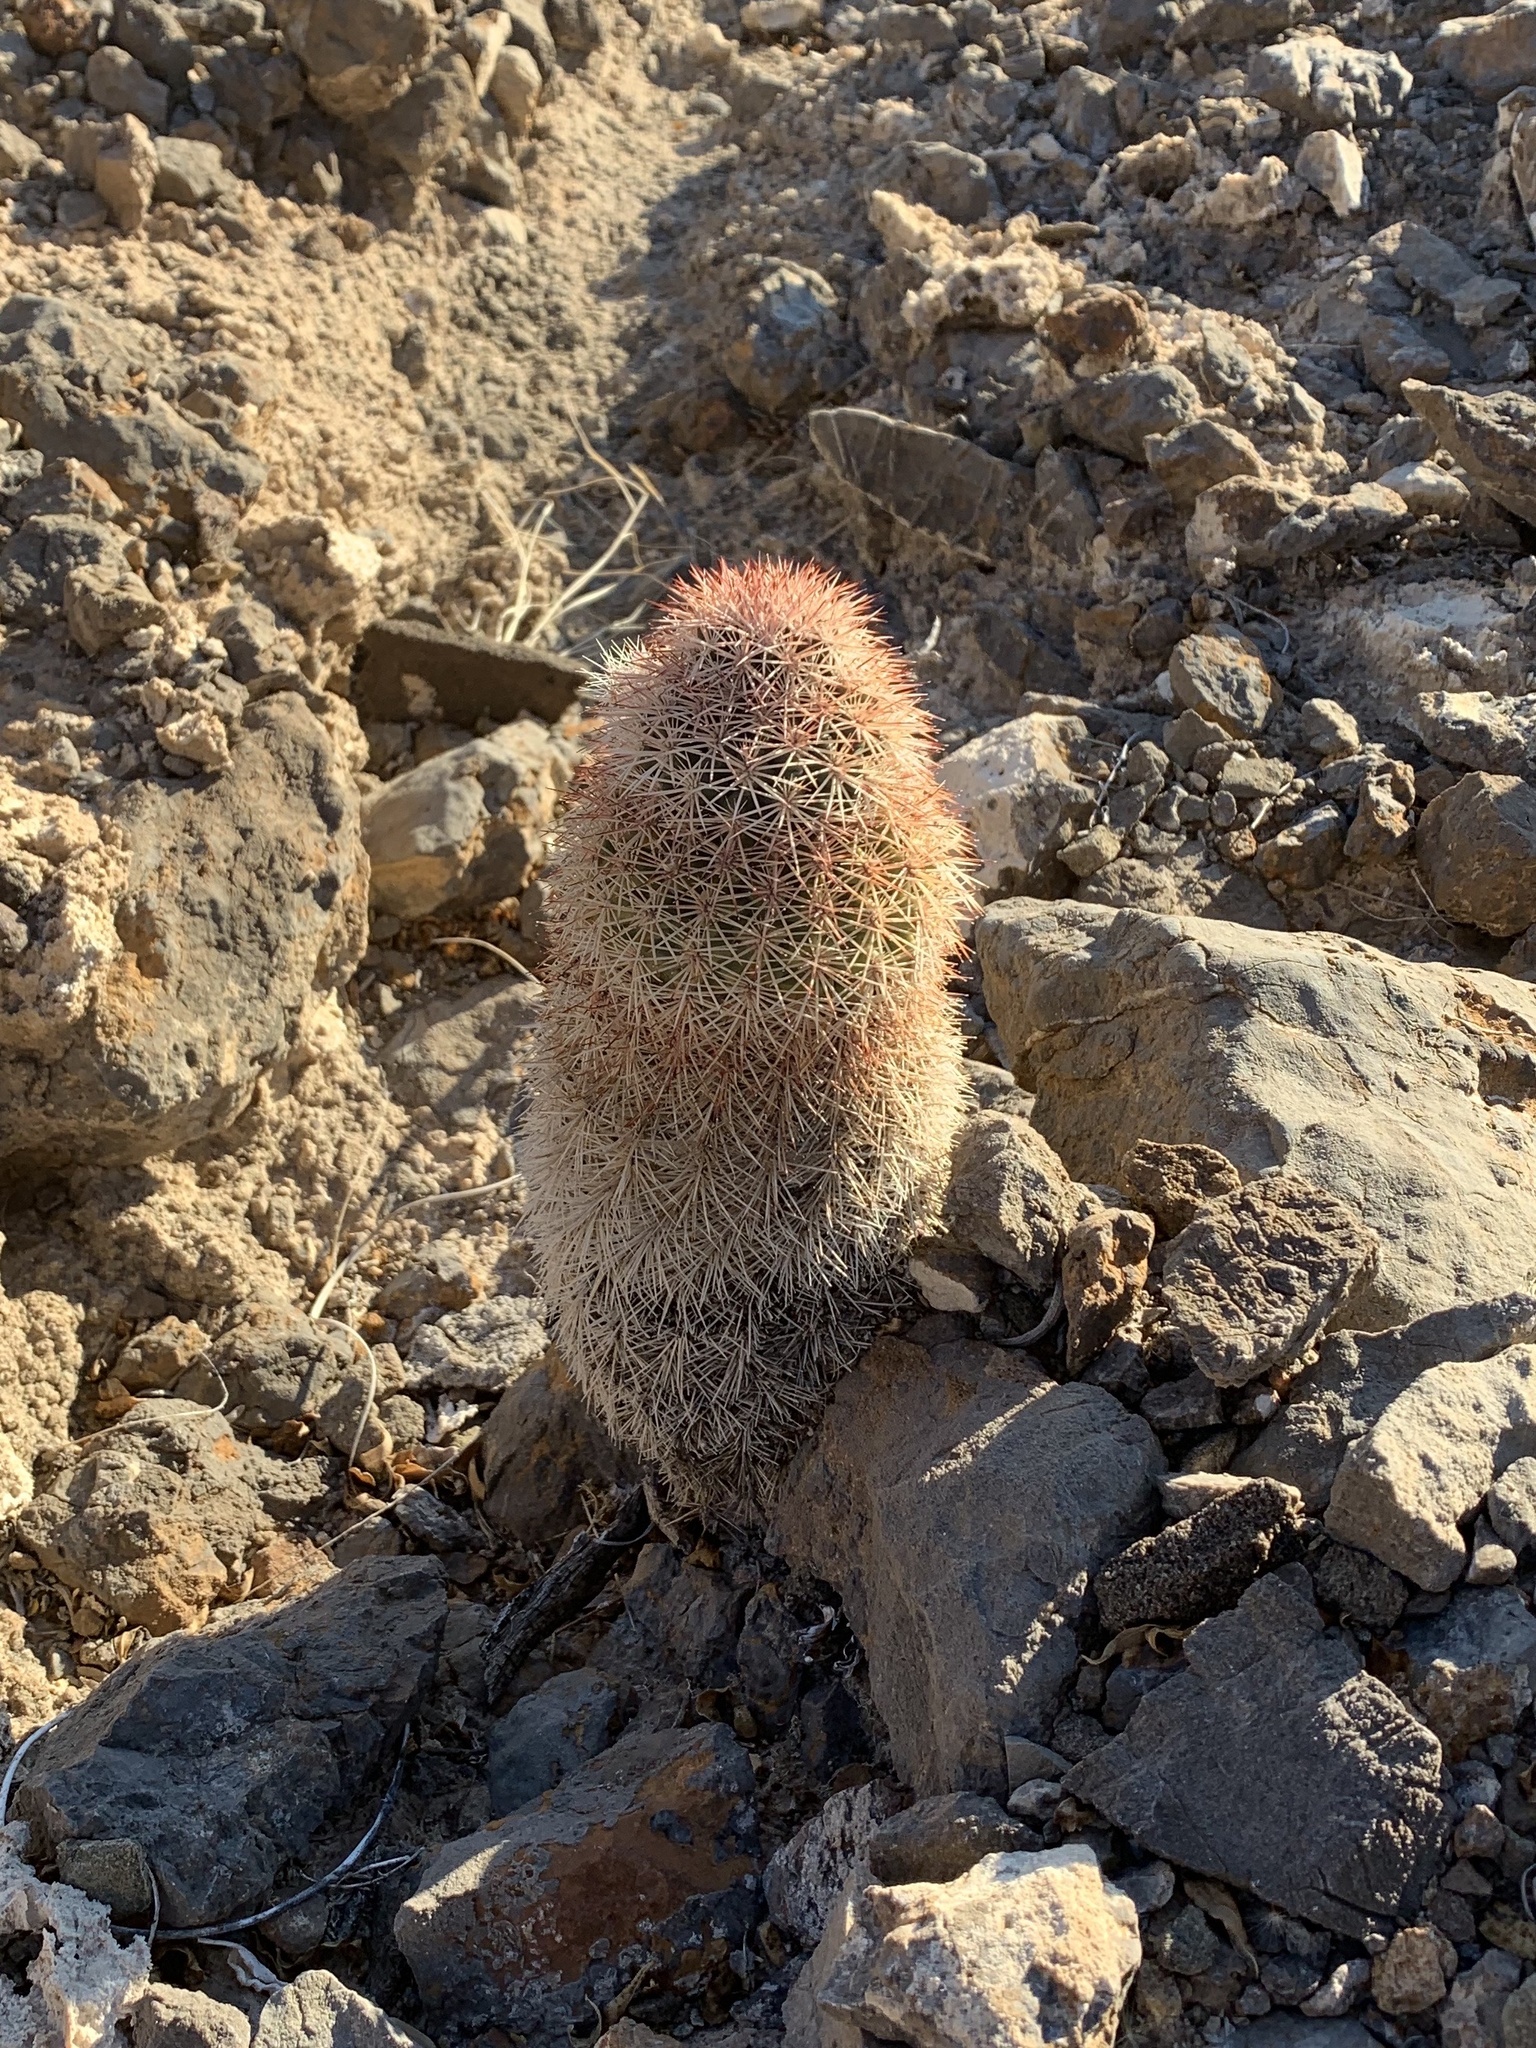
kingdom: Plantae
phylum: Tracheophyta
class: Magnoliopsida
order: Caryophyllales
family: Cactaceae
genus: Echinocereus
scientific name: Echinocereus dasyacanthus
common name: Spiny hedgehog cactus
